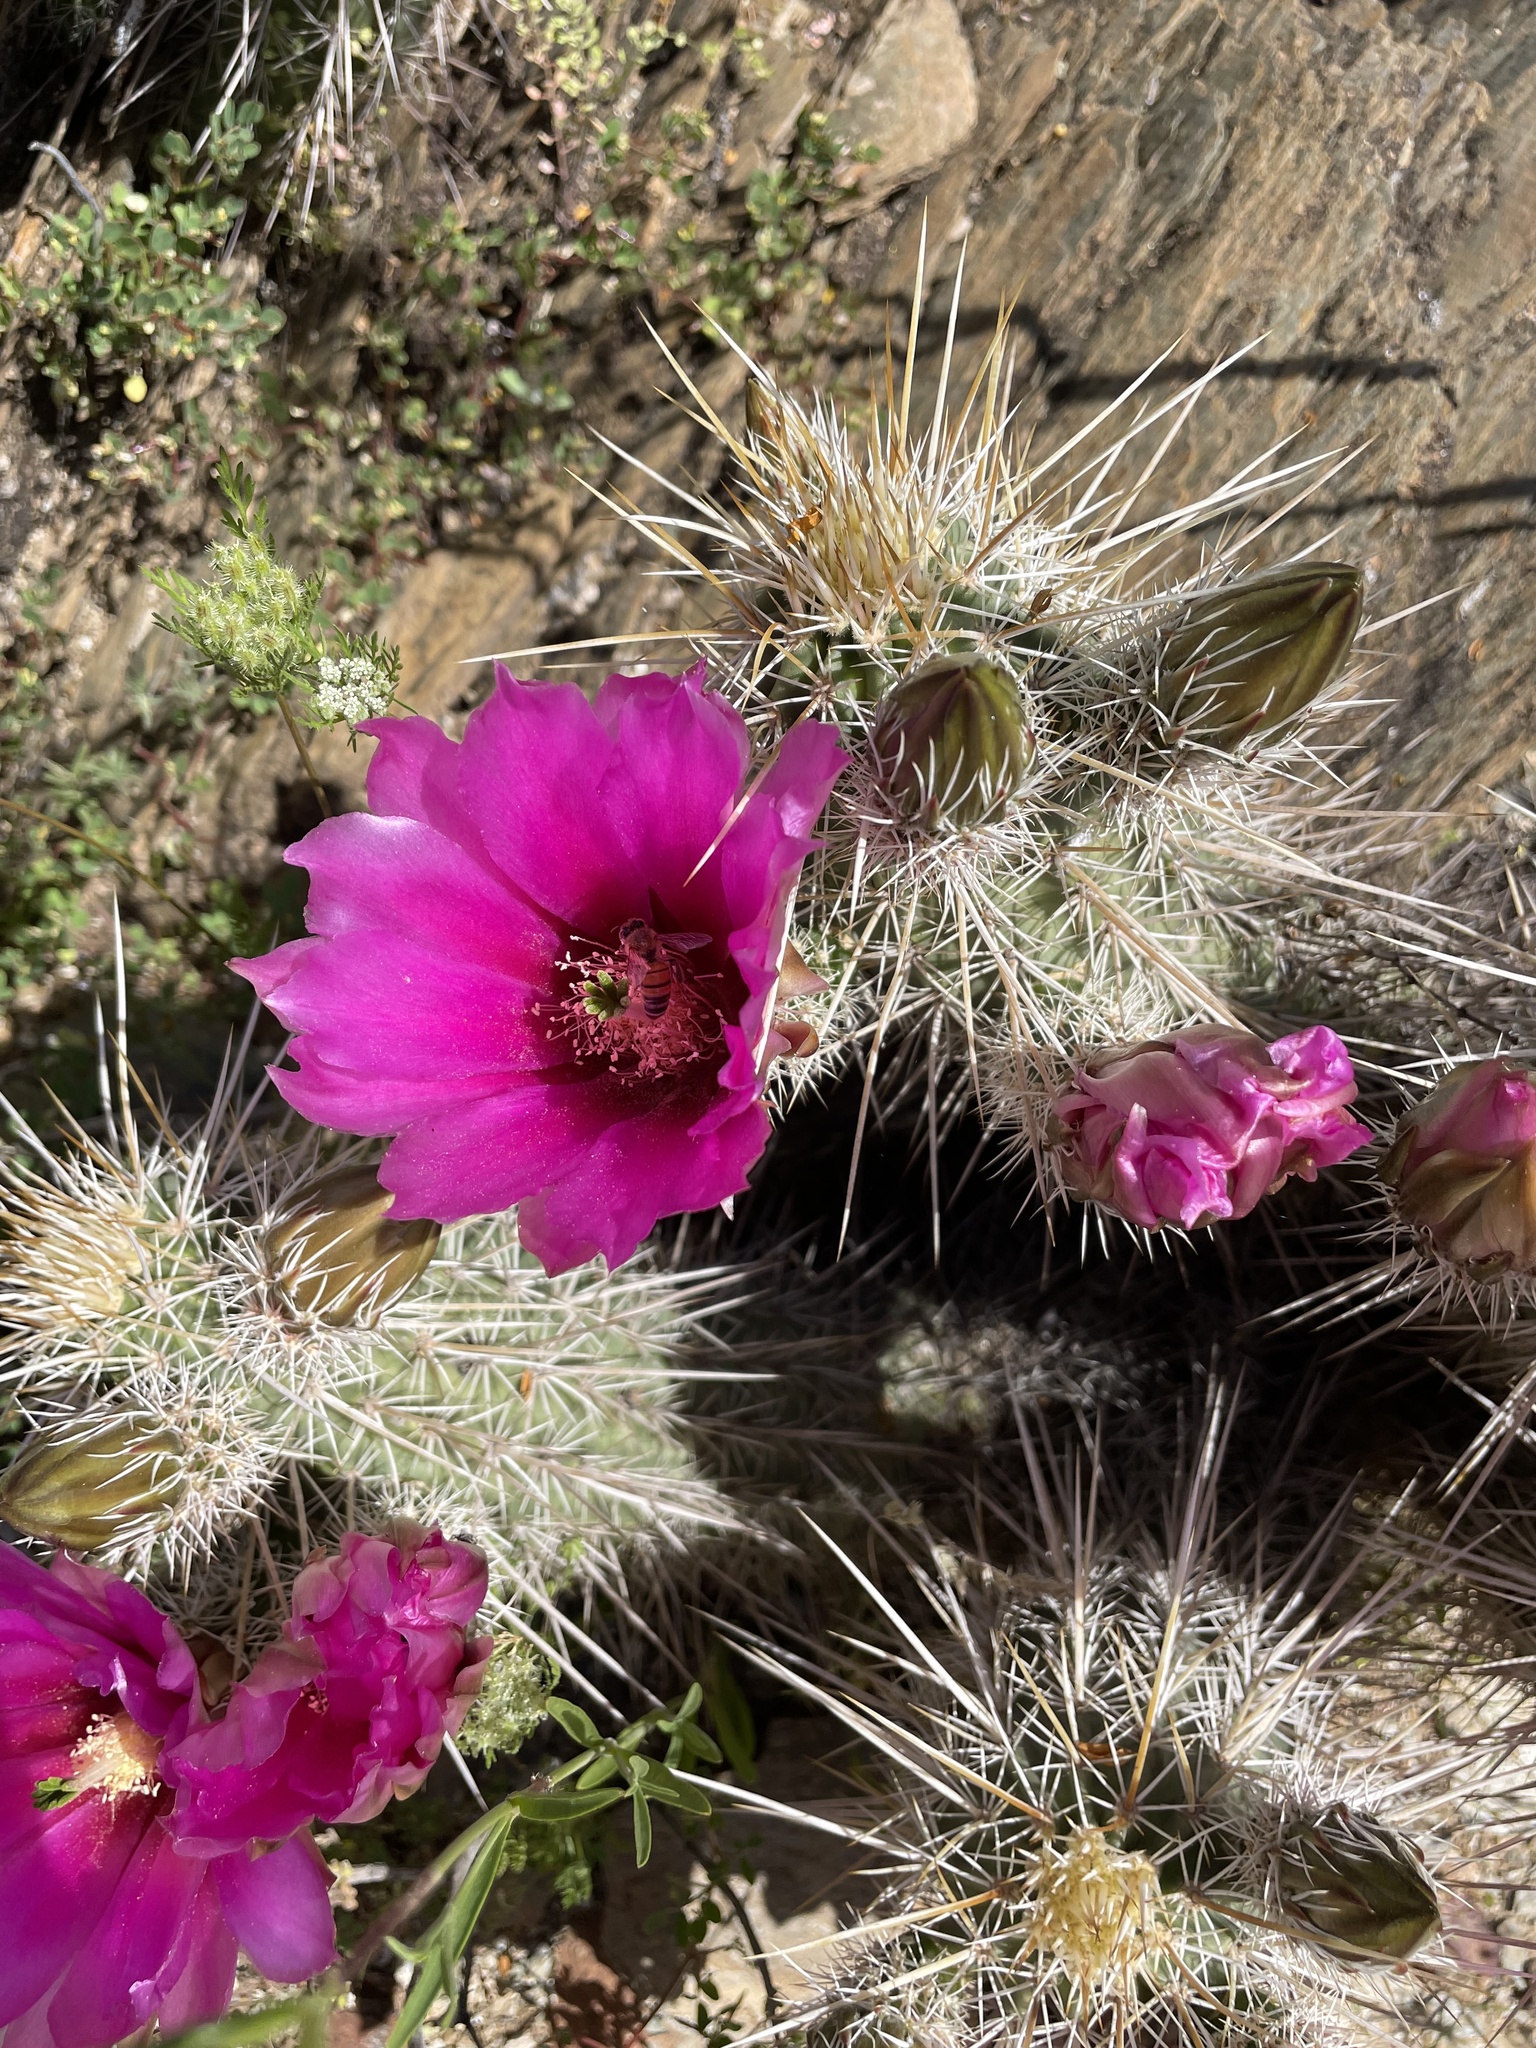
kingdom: Plantae
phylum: Tracheophyta
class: Magnoliopsida
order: Caryophyllales
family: Cactaceae
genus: Echinocereus
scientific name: Echinocereus fasciculatus
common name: Bundle hedgehog
